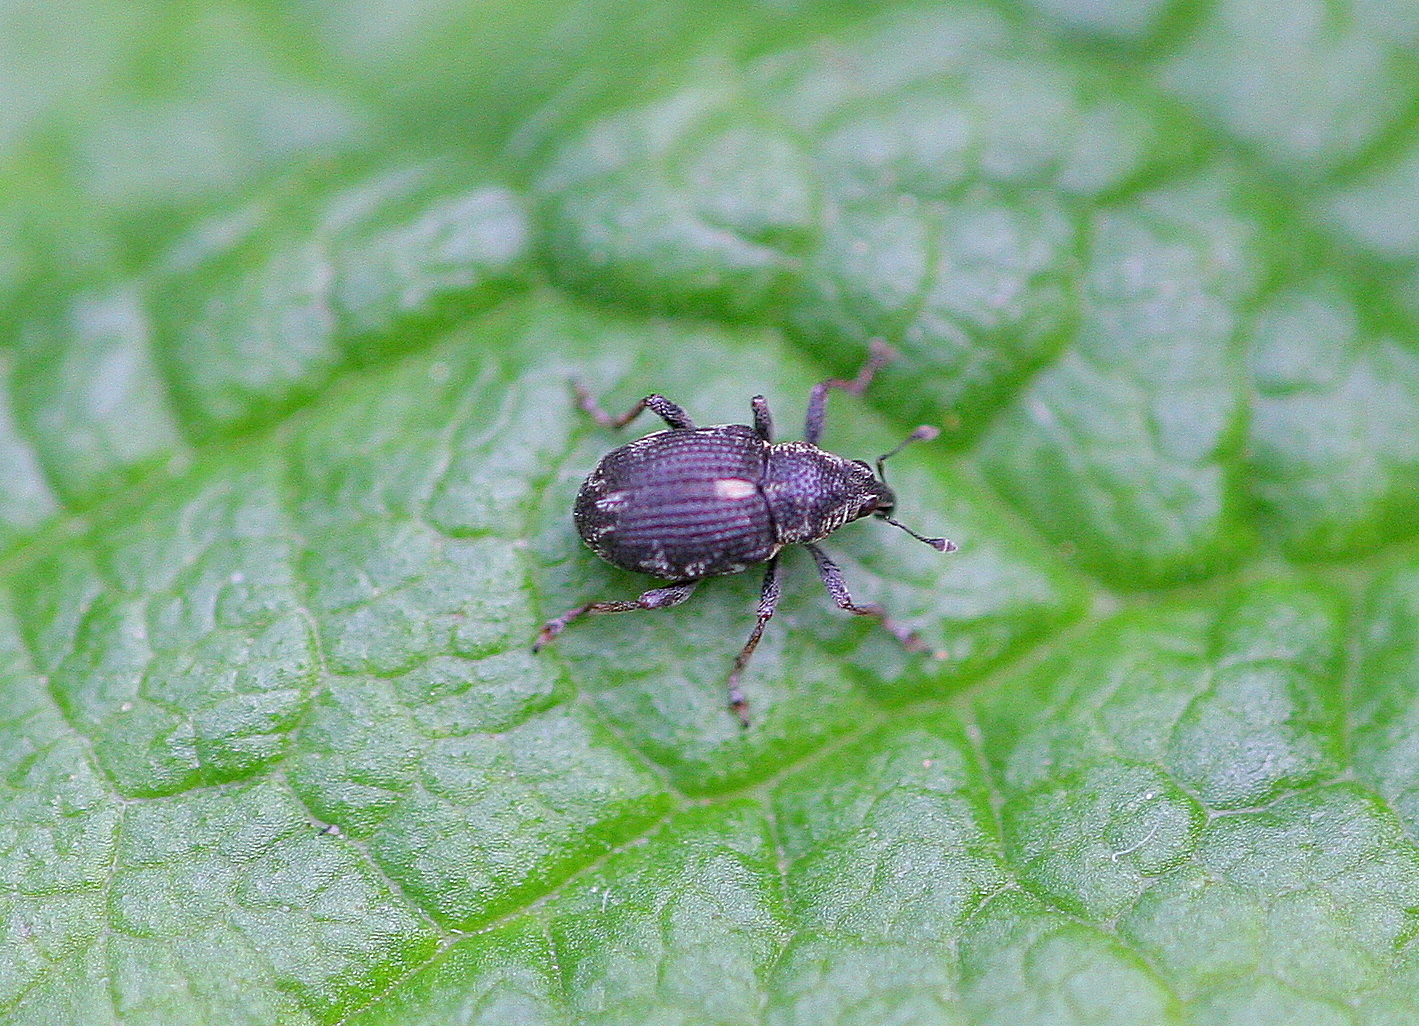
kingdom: Animalia
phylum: Arthropoda
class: Insecta
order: Coleoptera
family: Curculionidae
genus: Rhinoncus
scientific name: Rhinoncus perpendicularis
